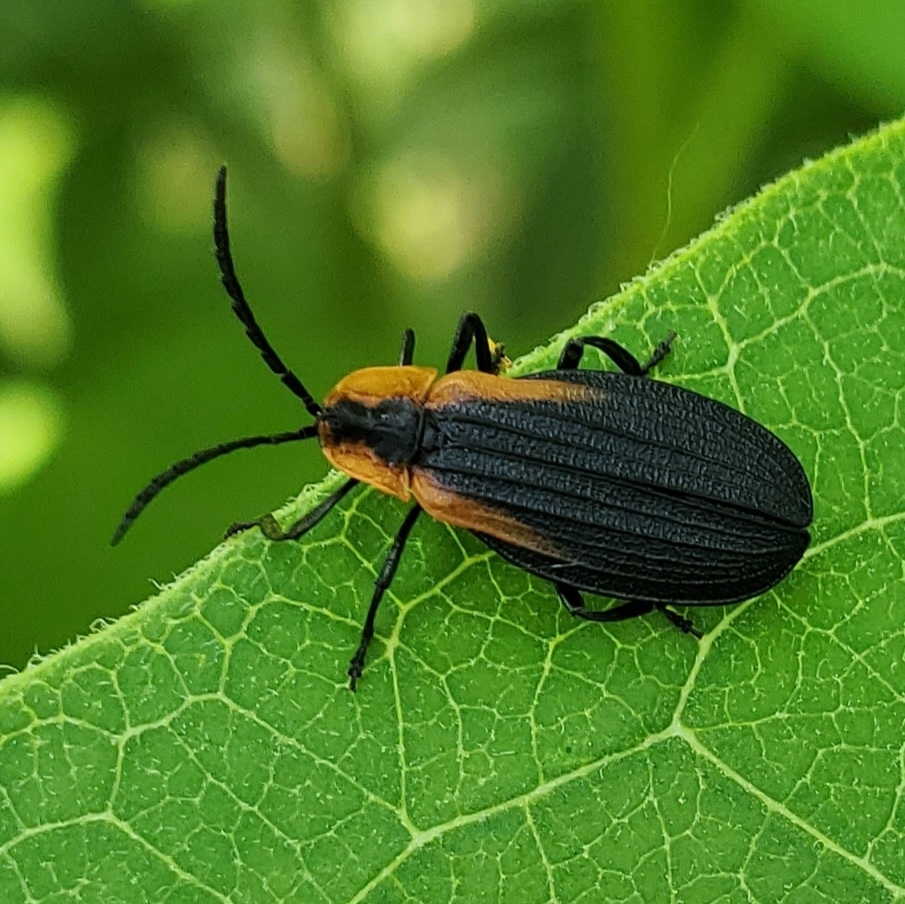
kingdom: Animalia
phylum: Arthropoda
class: Insecta
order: Coleoptera
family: Lycidae
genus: Lyconotus
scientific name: Lyconotus lateralis
